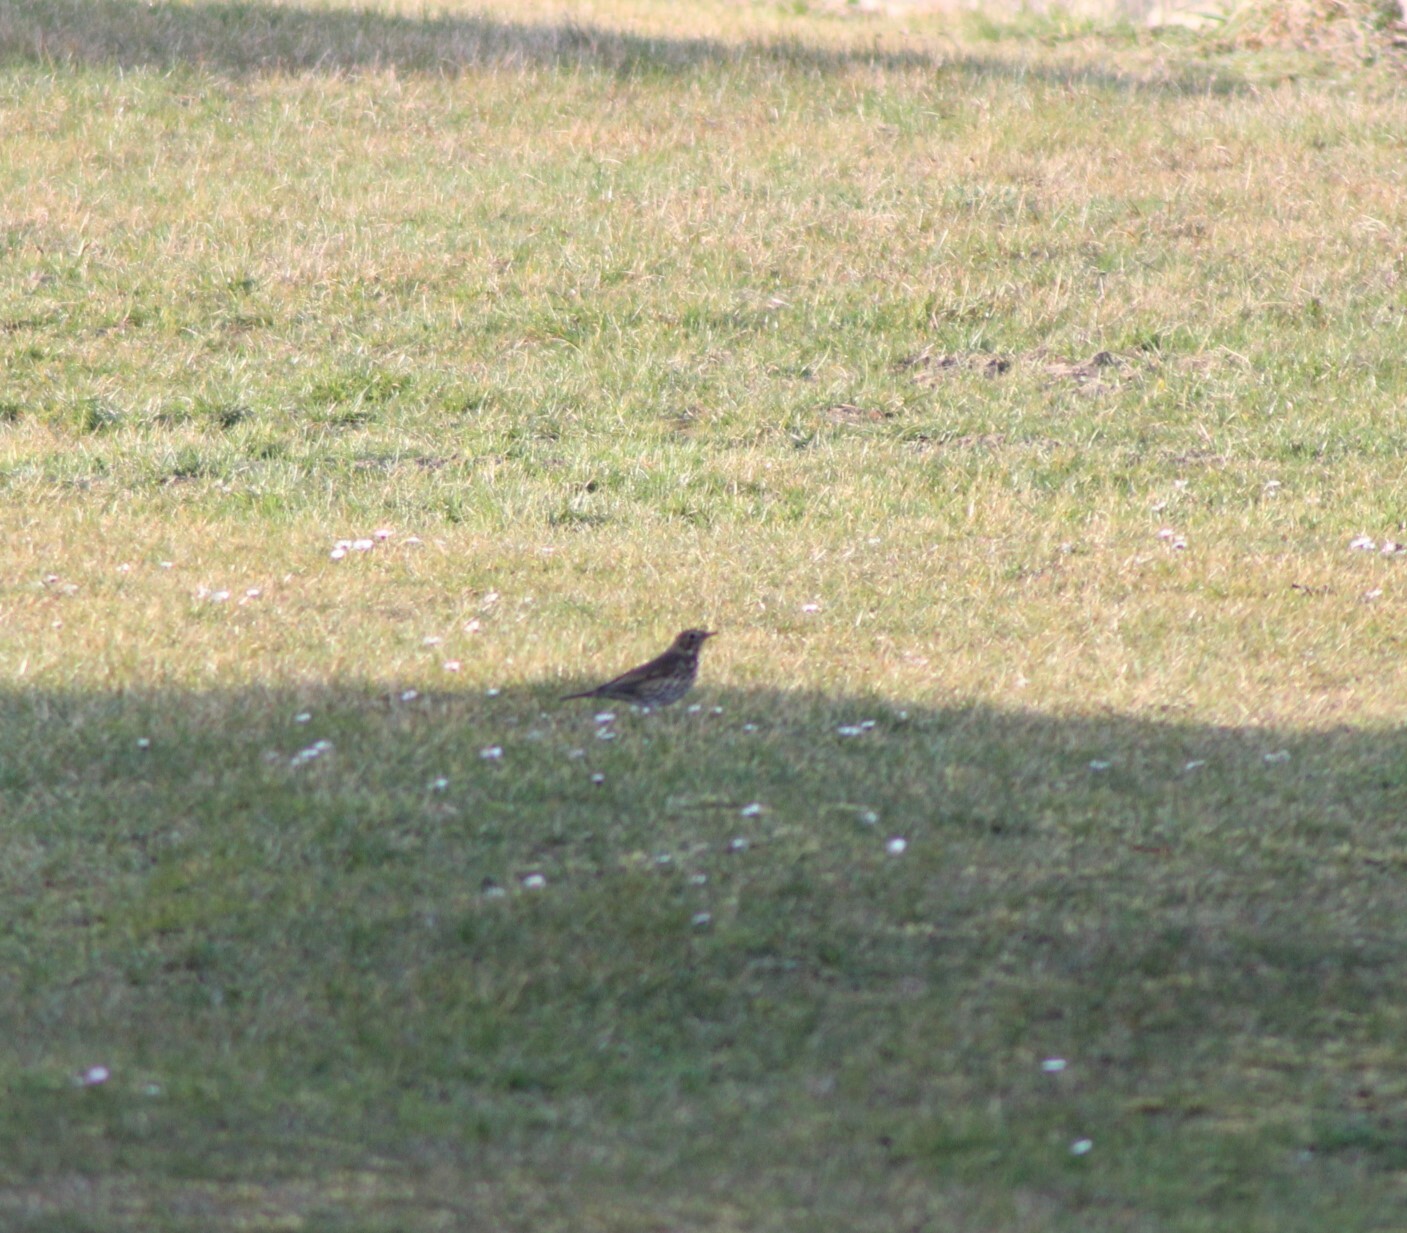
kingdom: Animalia
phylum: Chordata
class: Aves
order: Passeriformes
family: Turdidae
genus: Turdus
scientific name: Turdus viscivorus
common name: Mistle thrush
